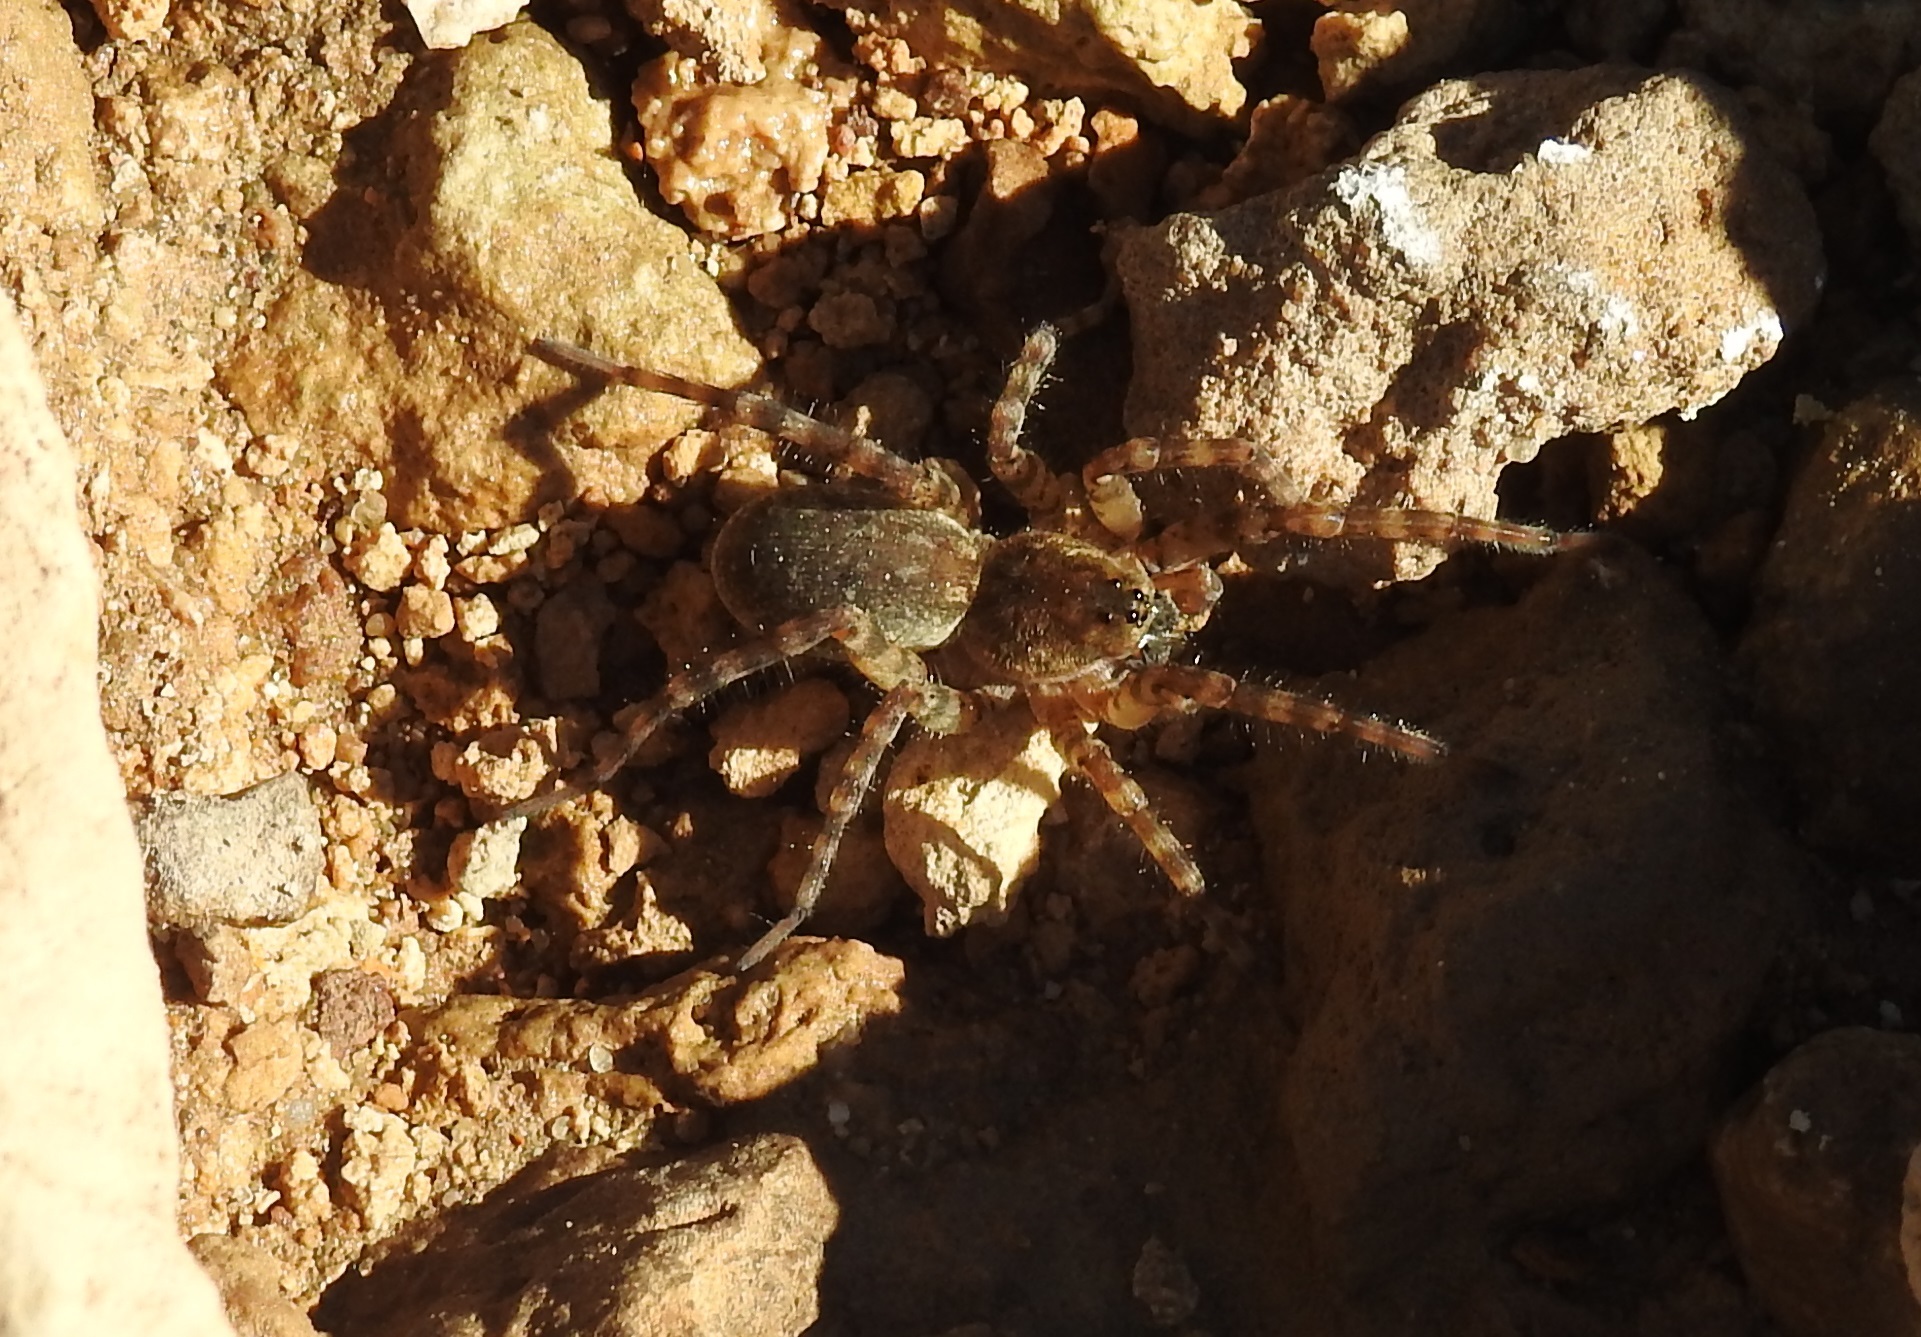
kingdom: Animalia
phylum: Arthropoda
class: Arachnida
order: Araneae
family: Lycosidae
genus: Arctosa
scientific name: Arctosa cinerea
